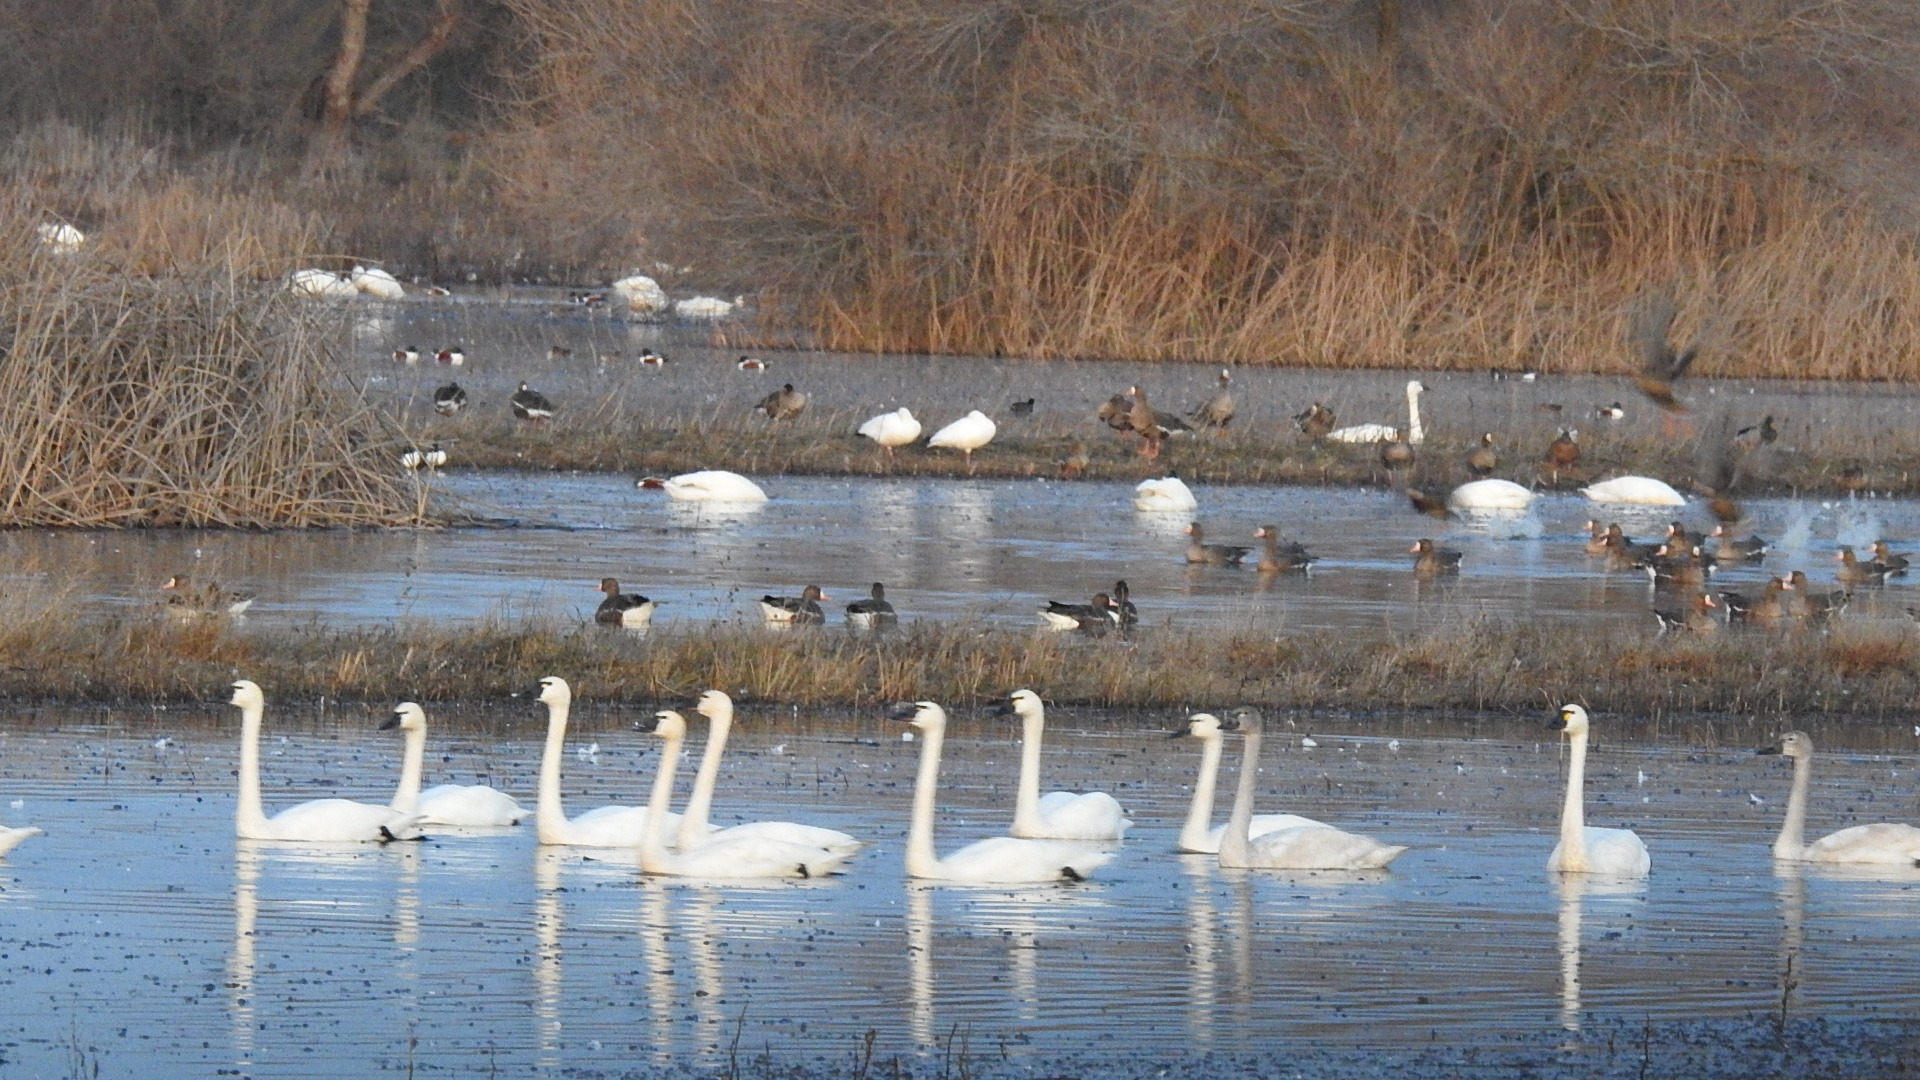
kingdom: Animalia
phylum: Chordata
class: Aves
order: Anseriformes
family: Anatidae
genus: Cygnus
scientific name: Cygnus columbianus
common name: Tundra swan
